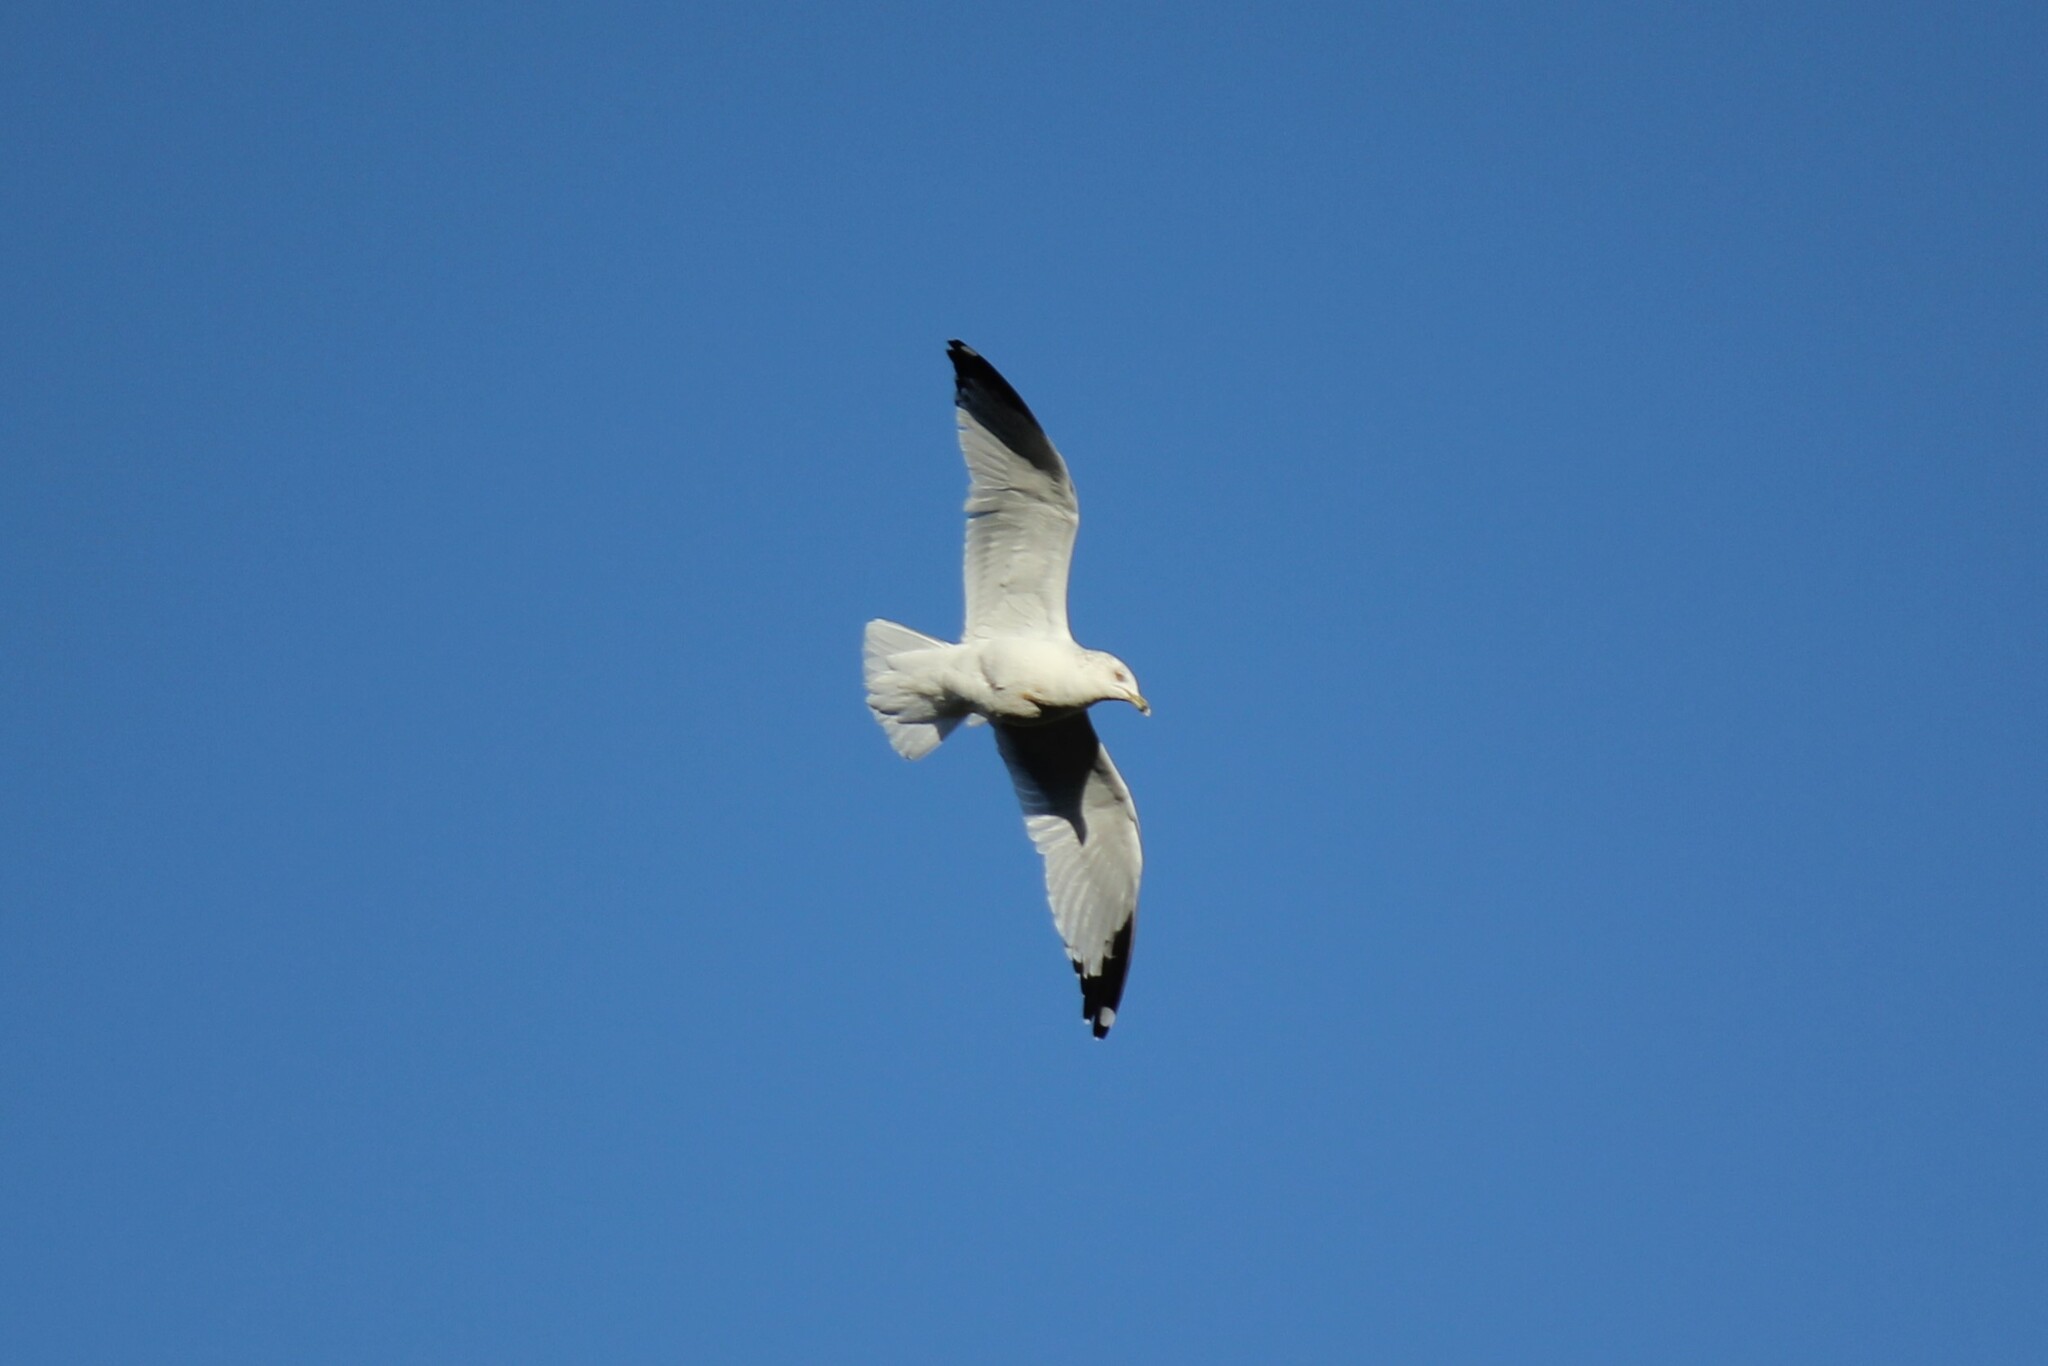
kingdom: Animalia
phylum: Chordata
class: Aves
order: Charadriiformes
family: Laridae
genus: Larus
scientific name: Larus delawarensis
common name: Ring-billed gull
